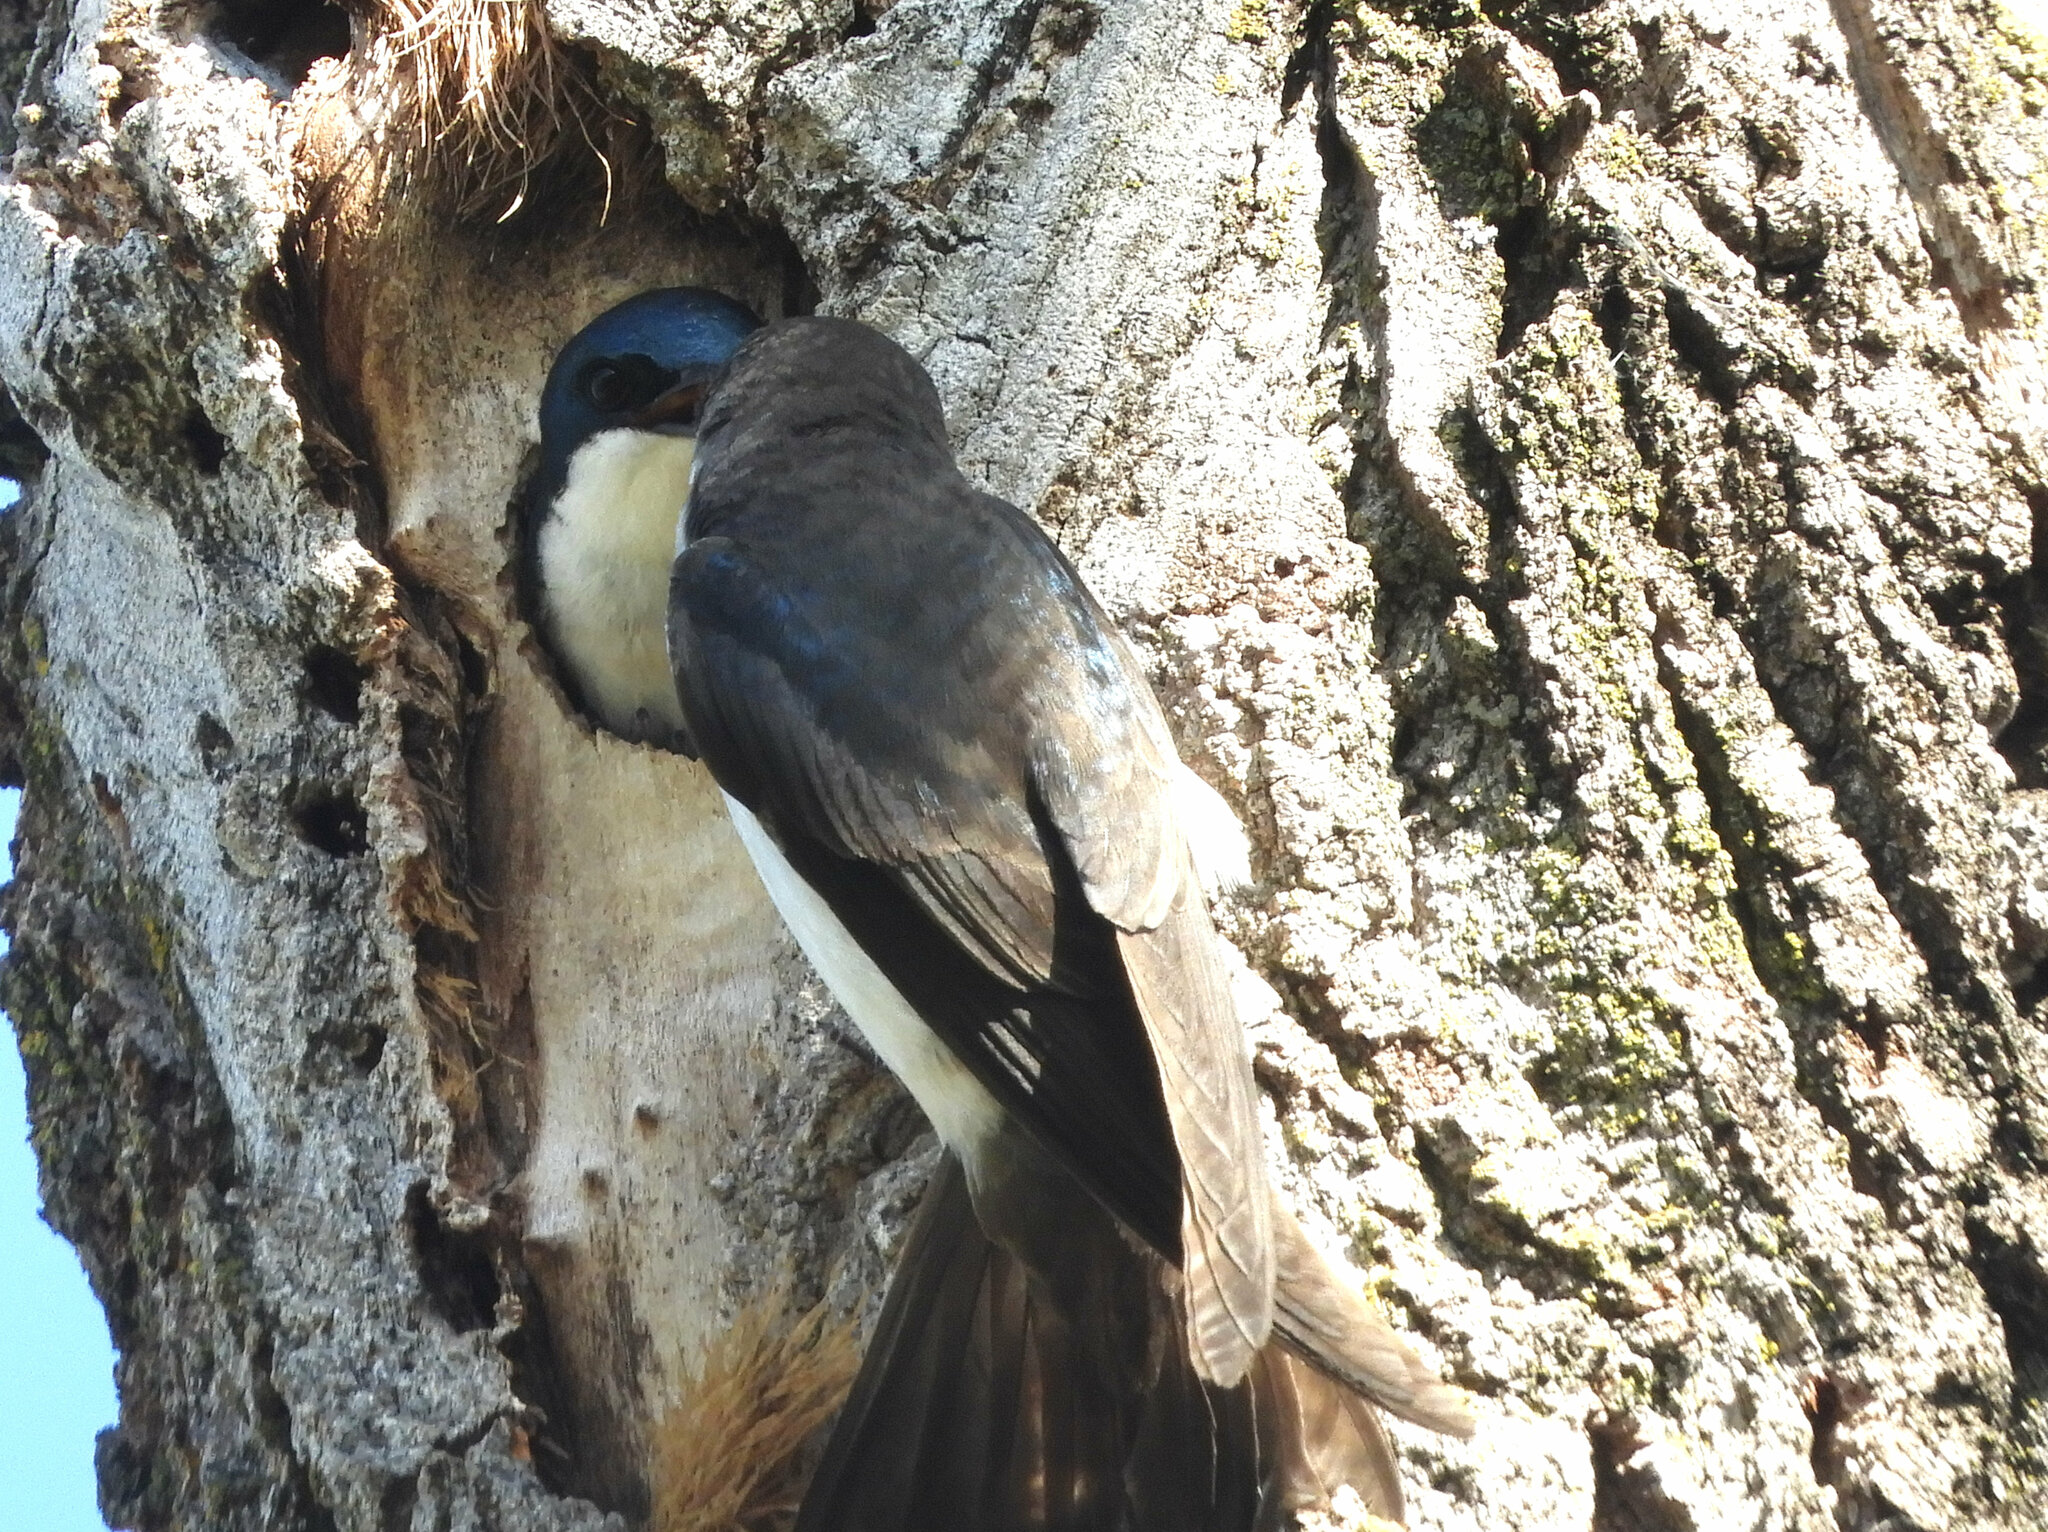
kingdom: Animalia
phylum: Chordata
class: Aves
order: Passeriformes
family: Hirundinidae
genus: Tachycineta
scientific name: Tachycineta bicolor
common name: Tree swallow
